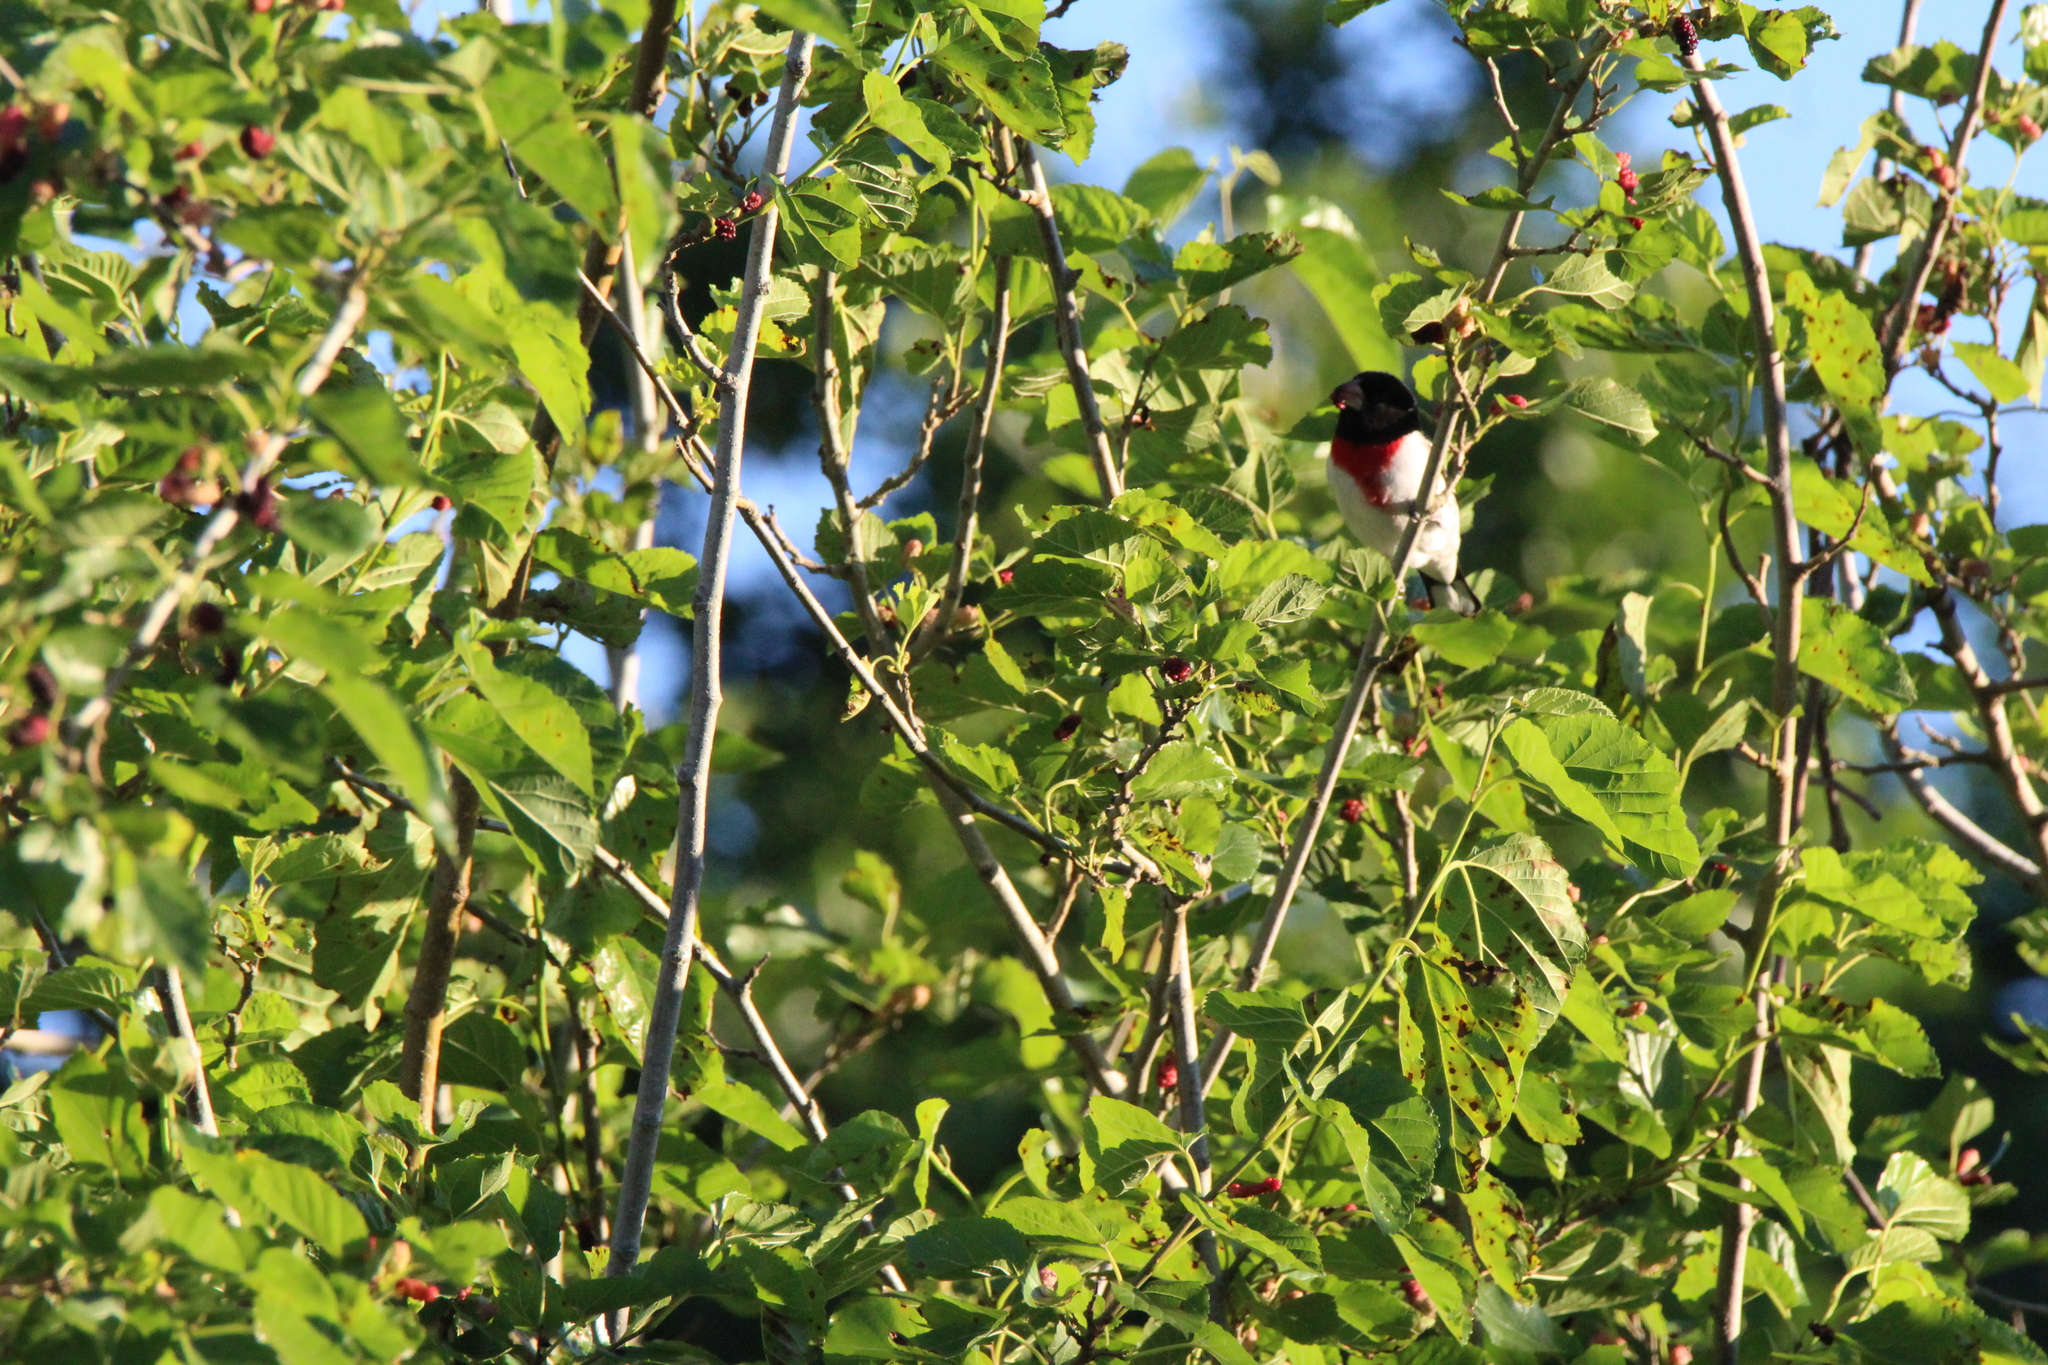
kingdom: Animalia
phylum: Chordata
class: Aves
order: Passeriformes
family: Cardinalidae
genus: Pheucticus
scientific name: Pheucticus ludovicianus
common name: Rose-breasted grosbeak
